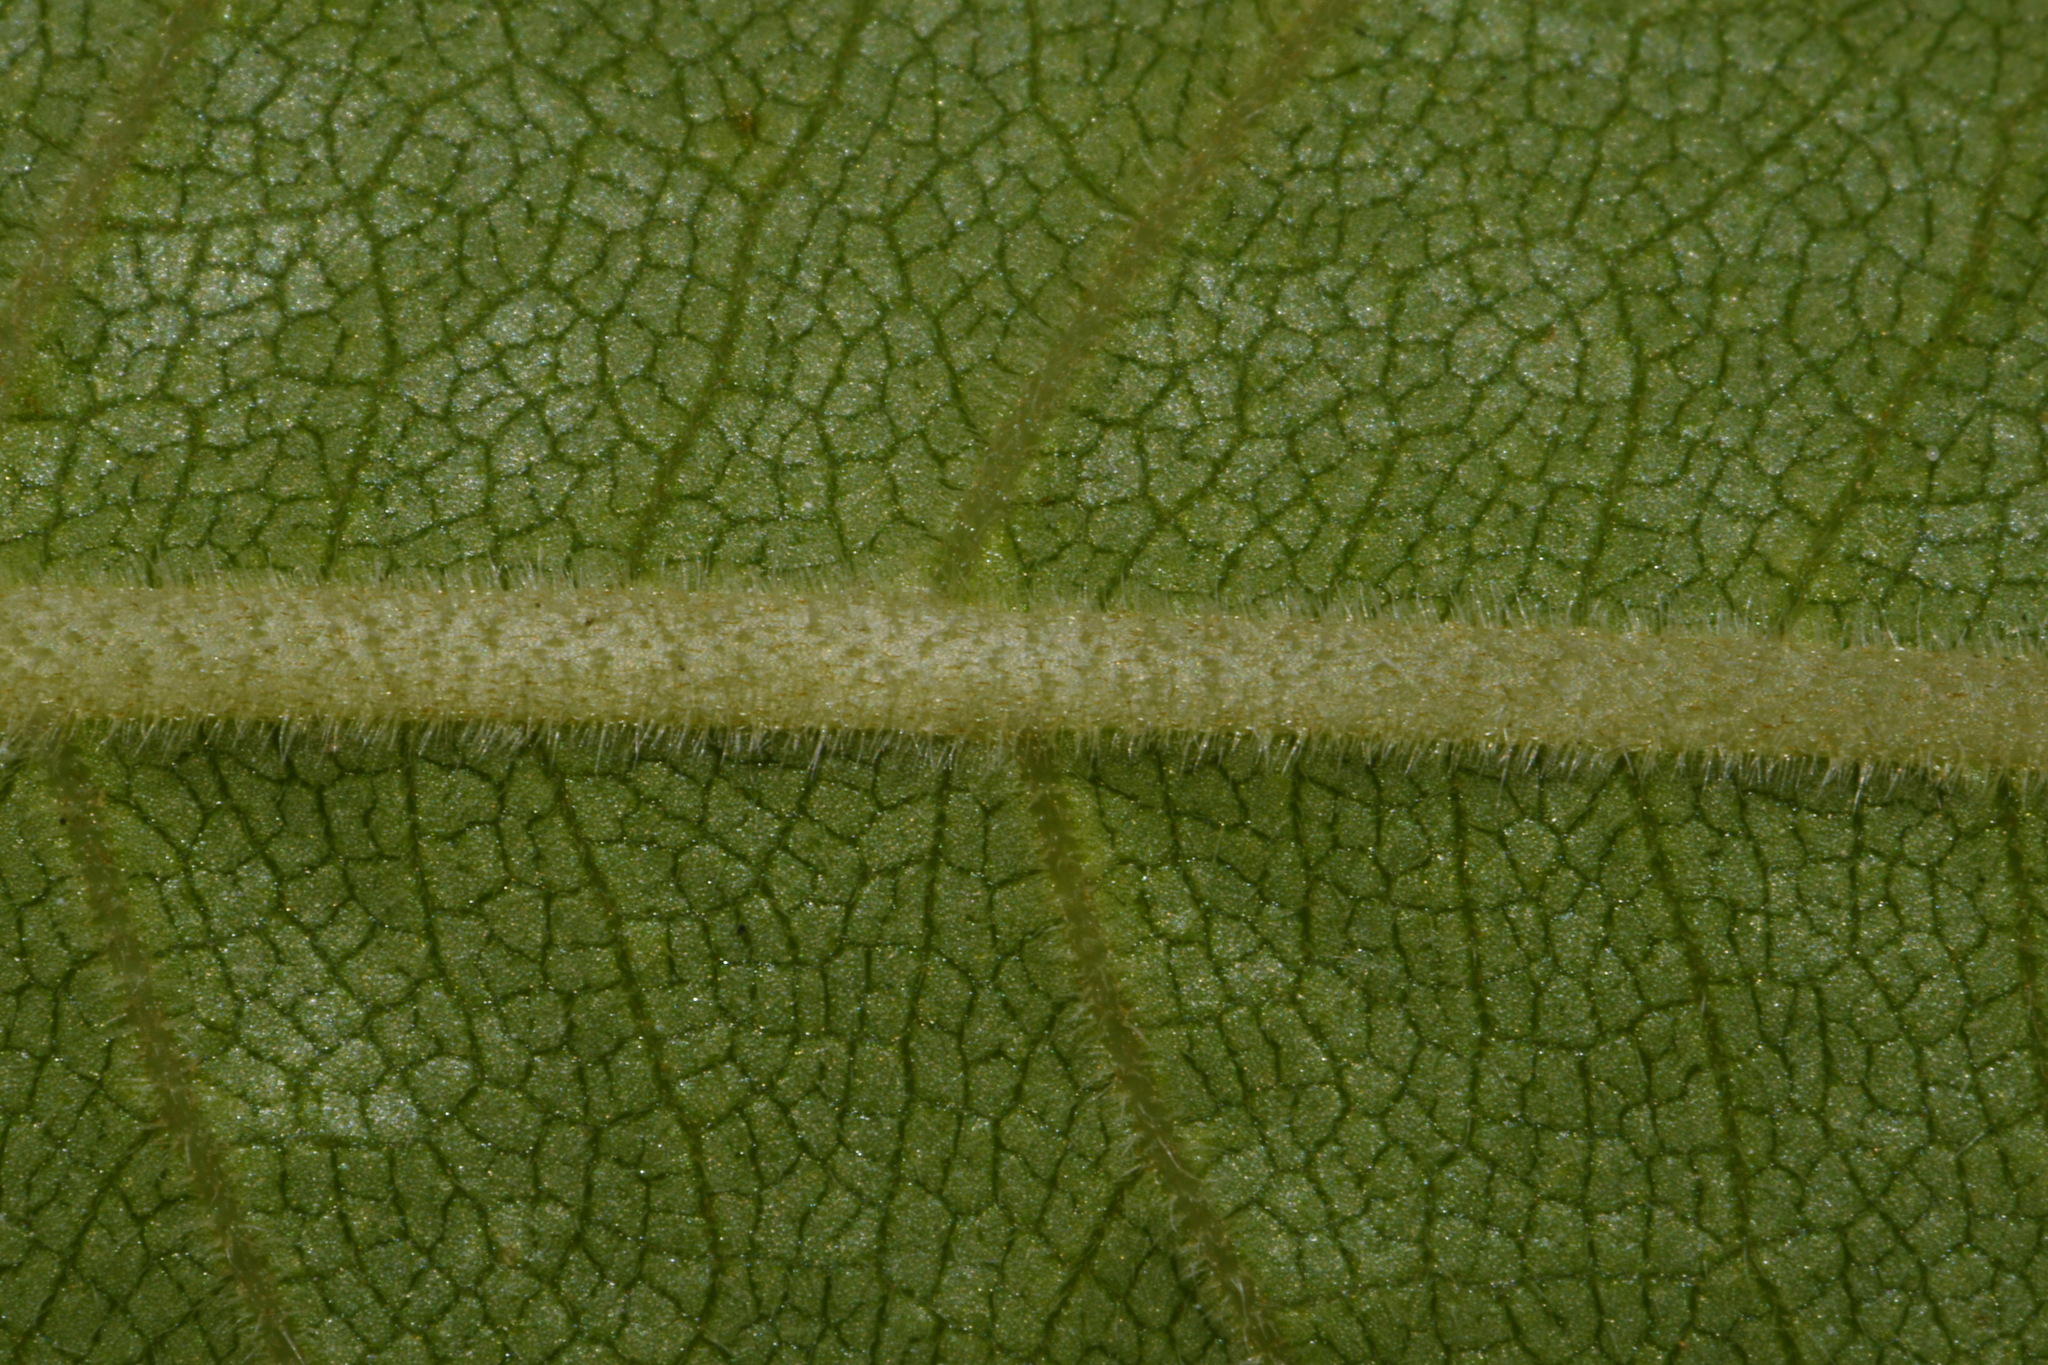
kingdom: Plantae
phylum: Tracheophyta
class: Magnoliopsida
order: Asterales
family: Asteraceae
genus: Silphium
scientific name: Silphium integrifolium
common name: Whole-leaf rosinweed
